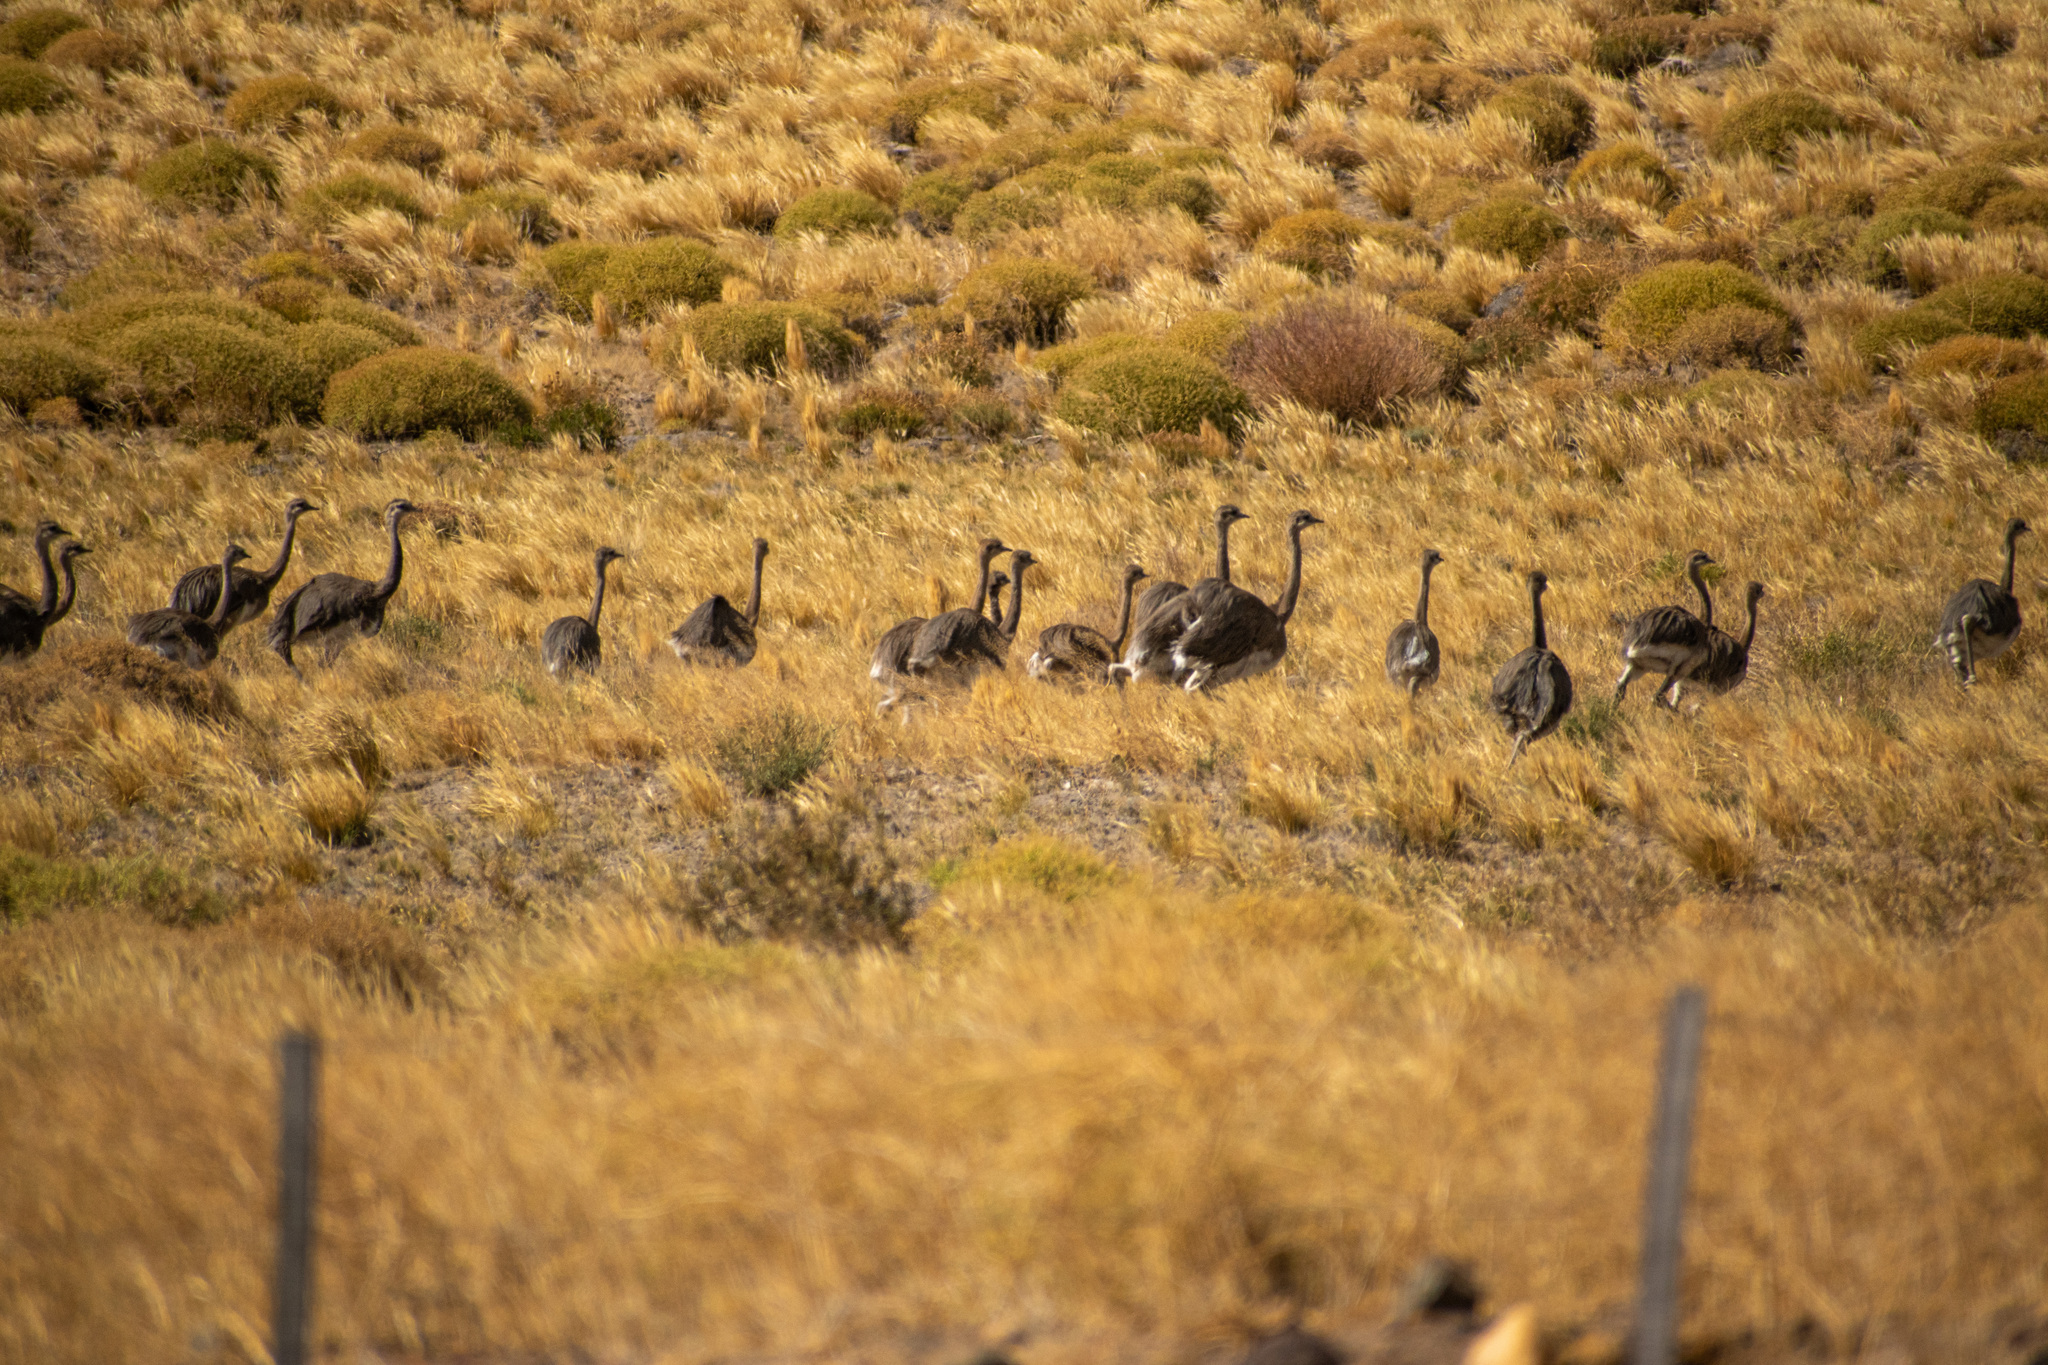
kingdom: Animalia
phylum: Chordata
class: Aves
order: Rheiformes
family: Rheidae
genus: Rhea
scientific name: Rhea pennata
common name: Lesser rhea
